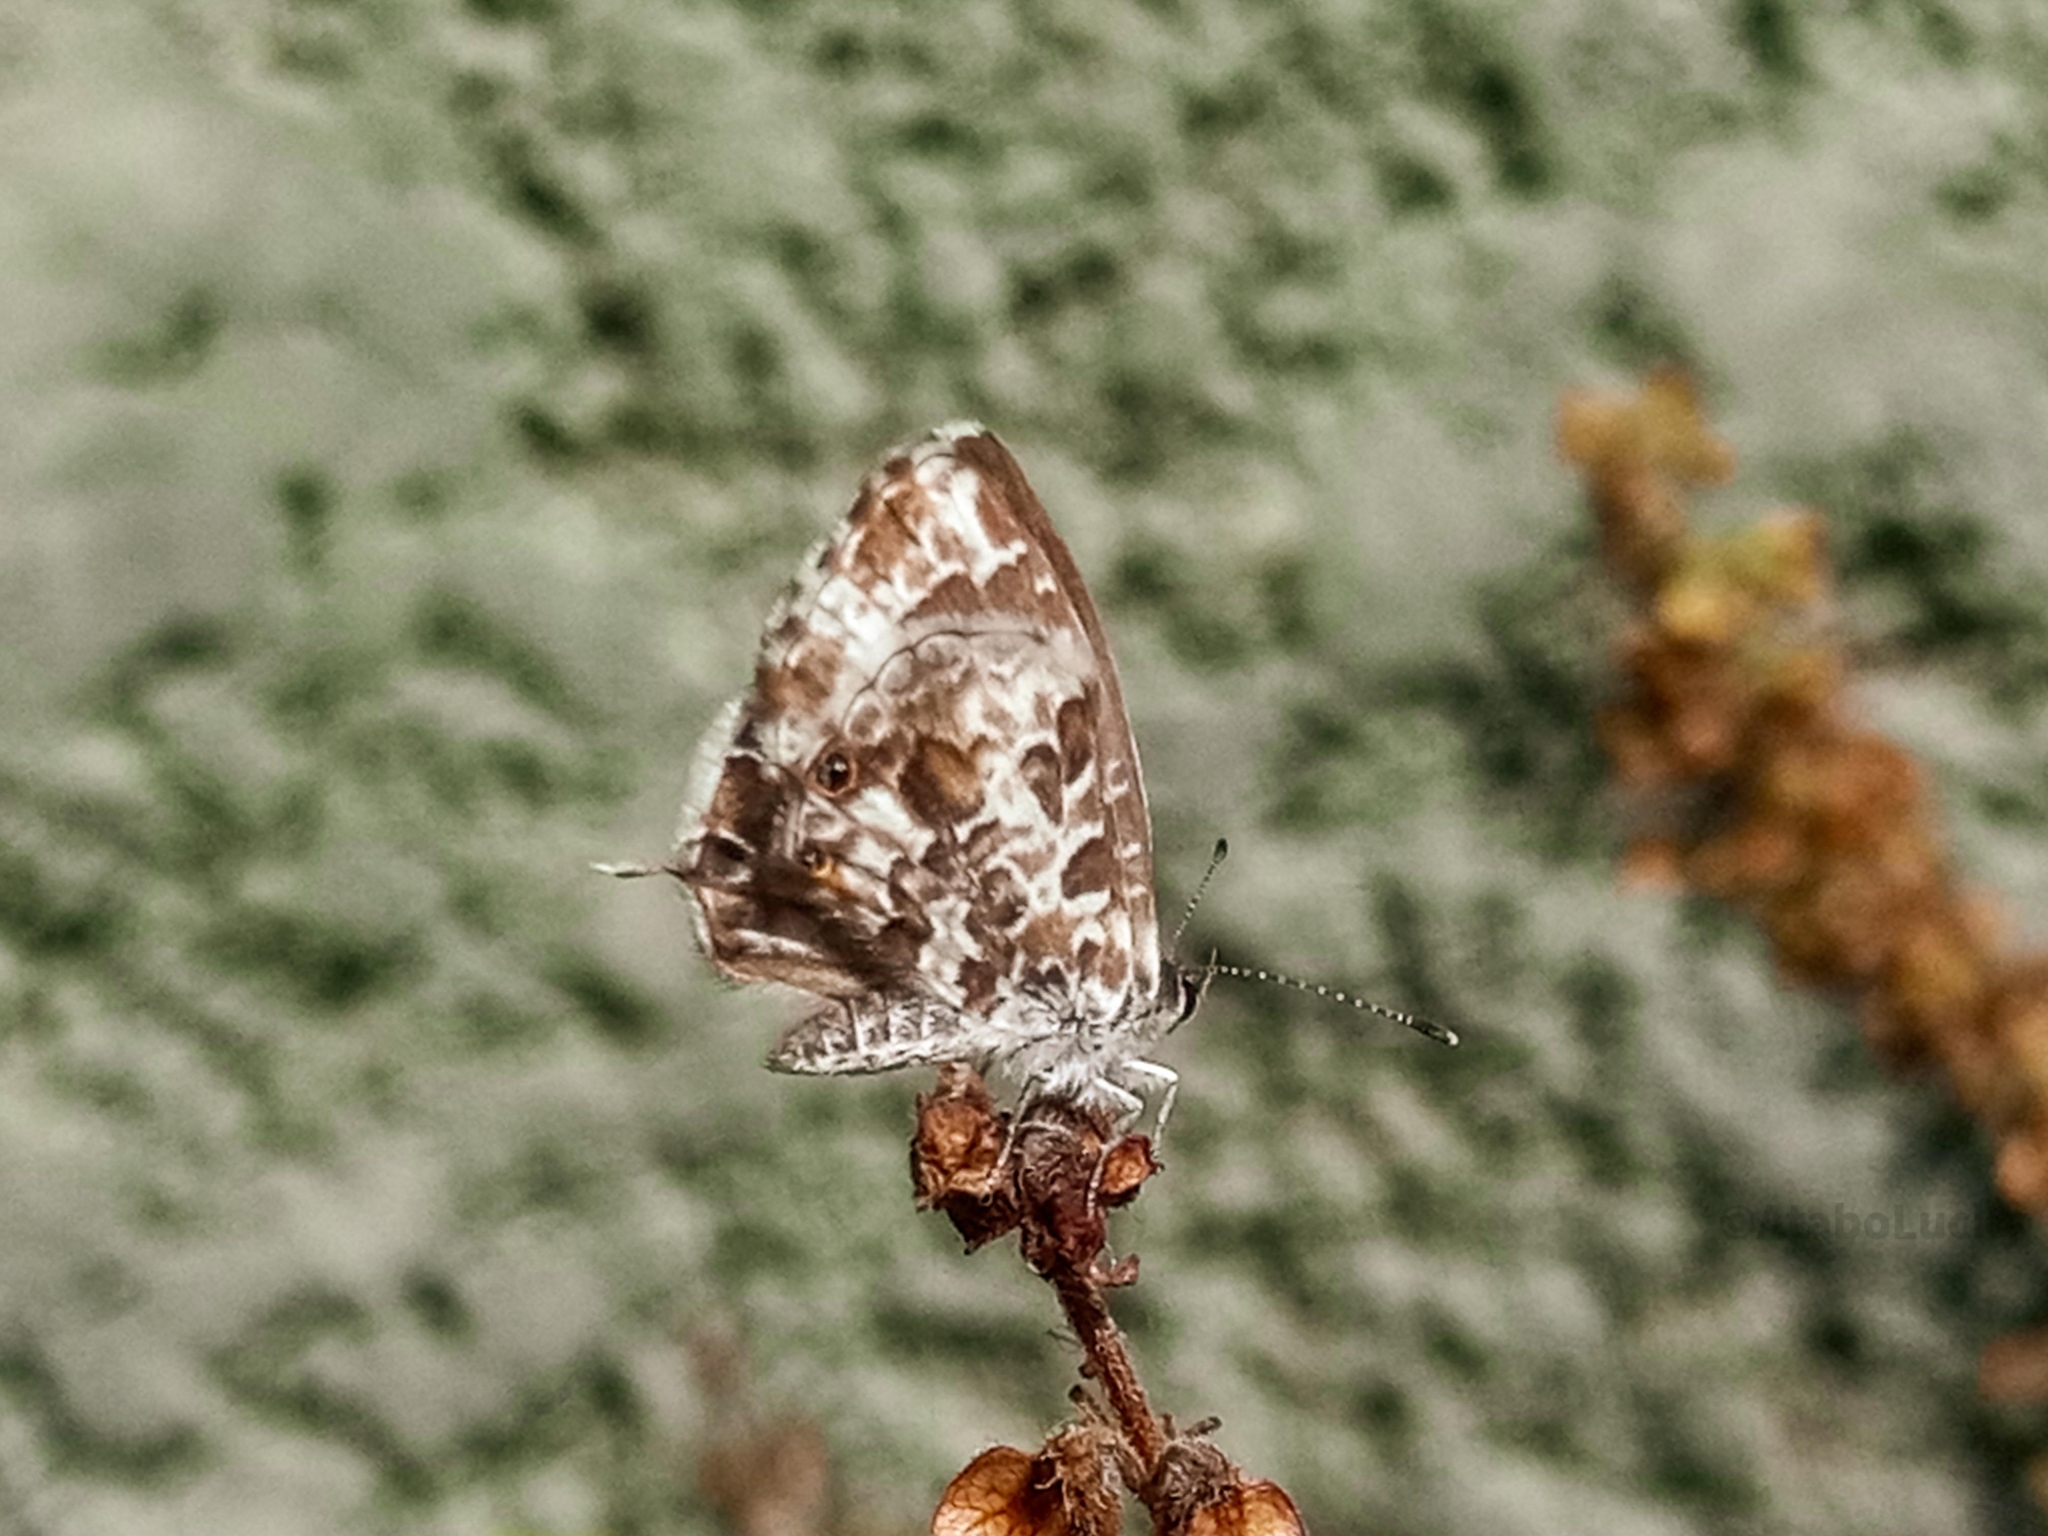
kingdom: Animalia
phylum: Arthropoda
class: Insecta
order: Lepidoptera
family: Lycaenidae
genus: Cacyreus
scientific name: Cacyreus lingeus
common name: Bush bronze
